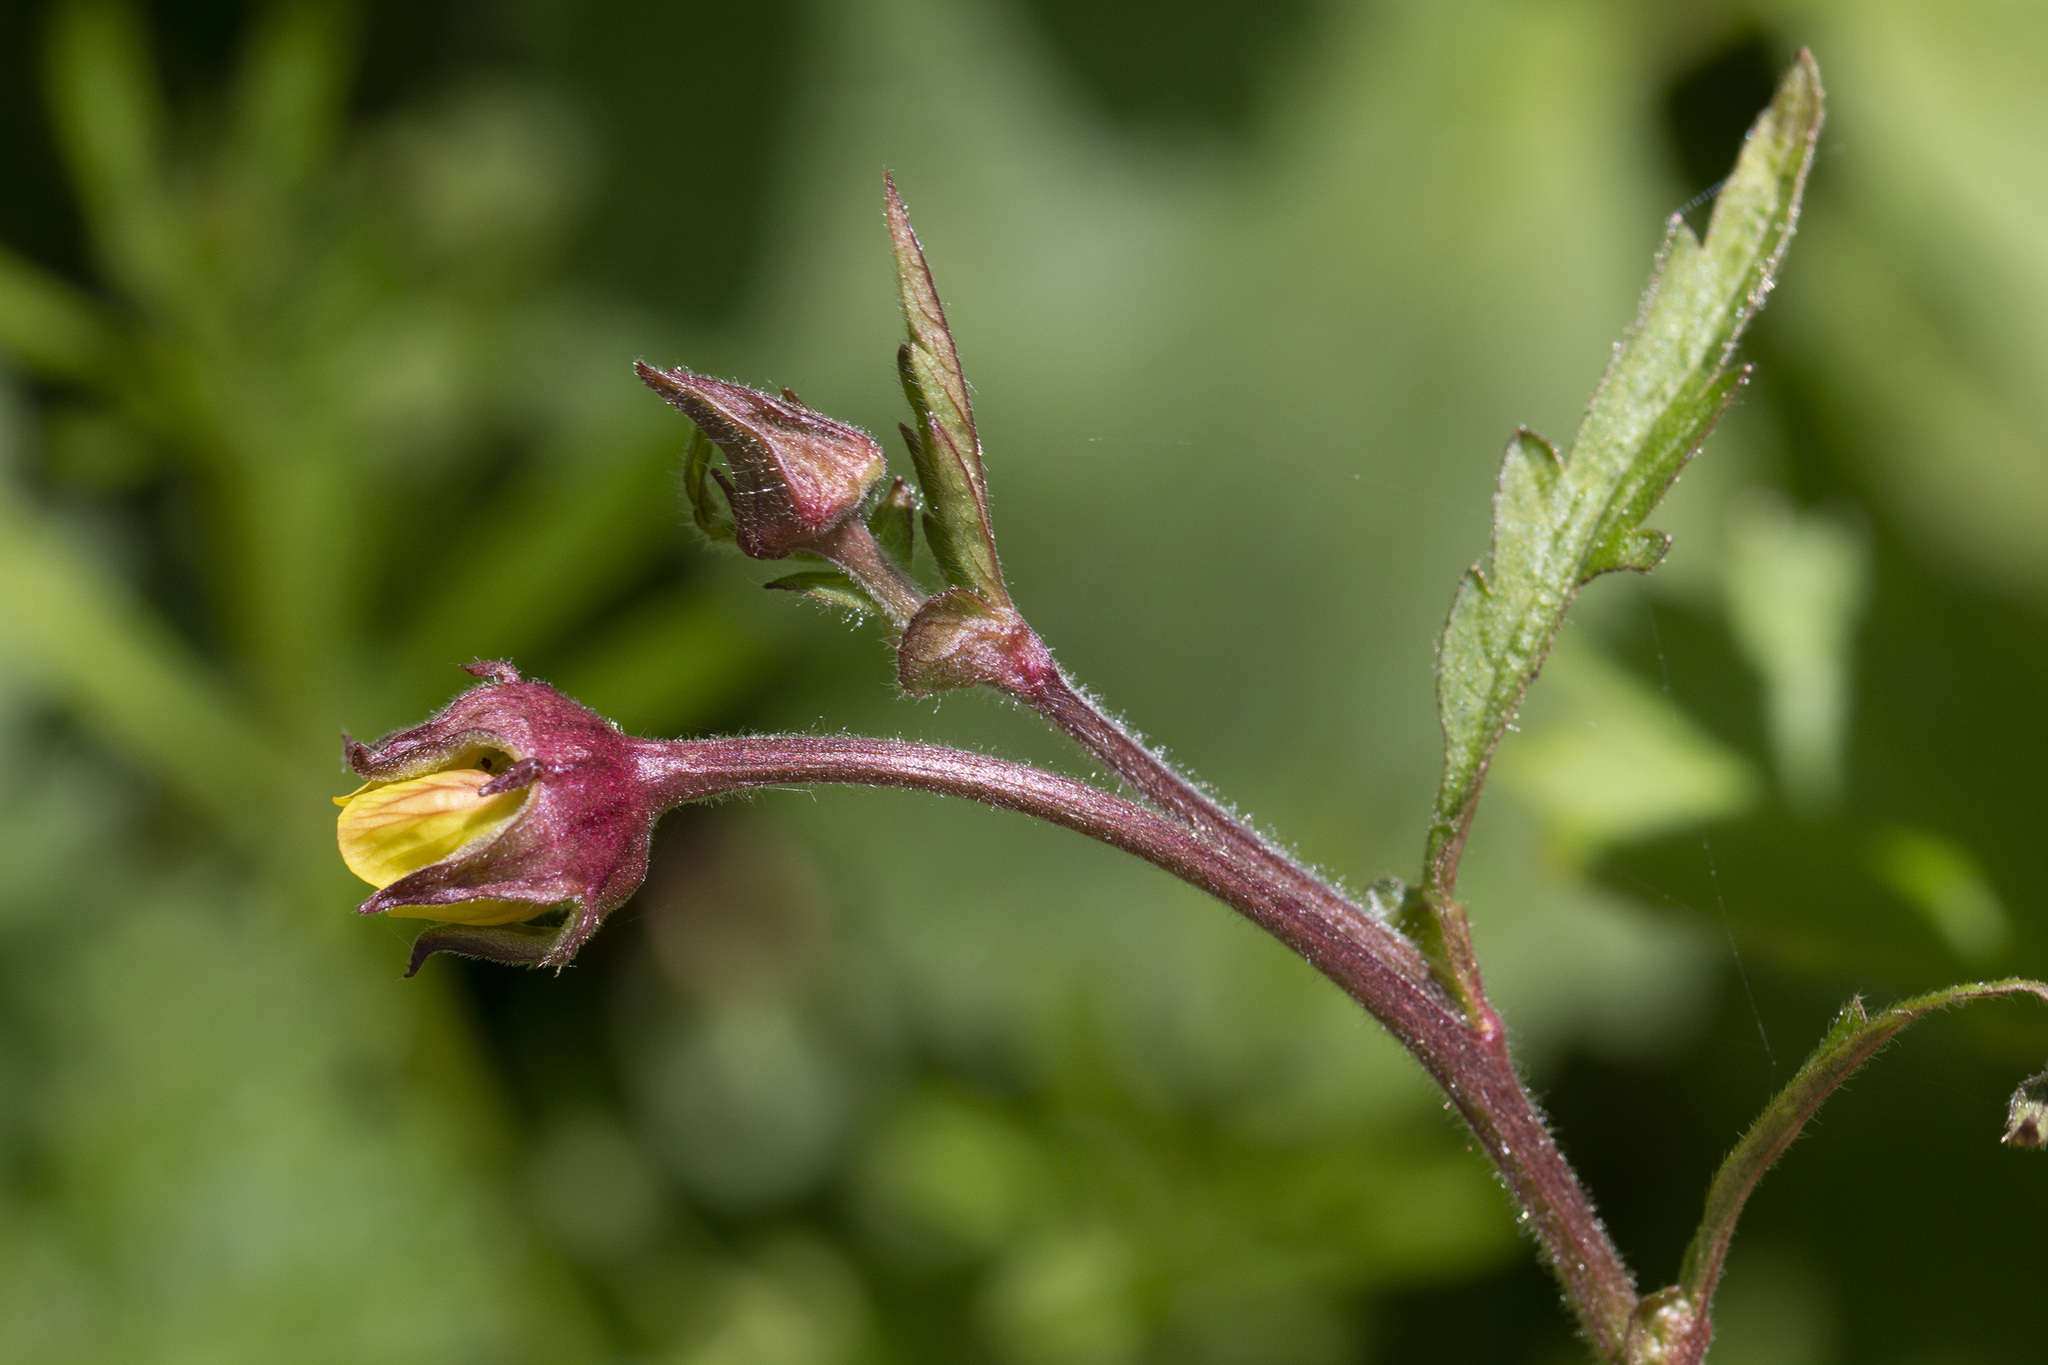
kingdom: Plantae
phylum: Tracheophyta
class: Magnoliopsida
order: Rosales
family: Rosaceae
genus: Geum
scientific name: Geum intermedium
